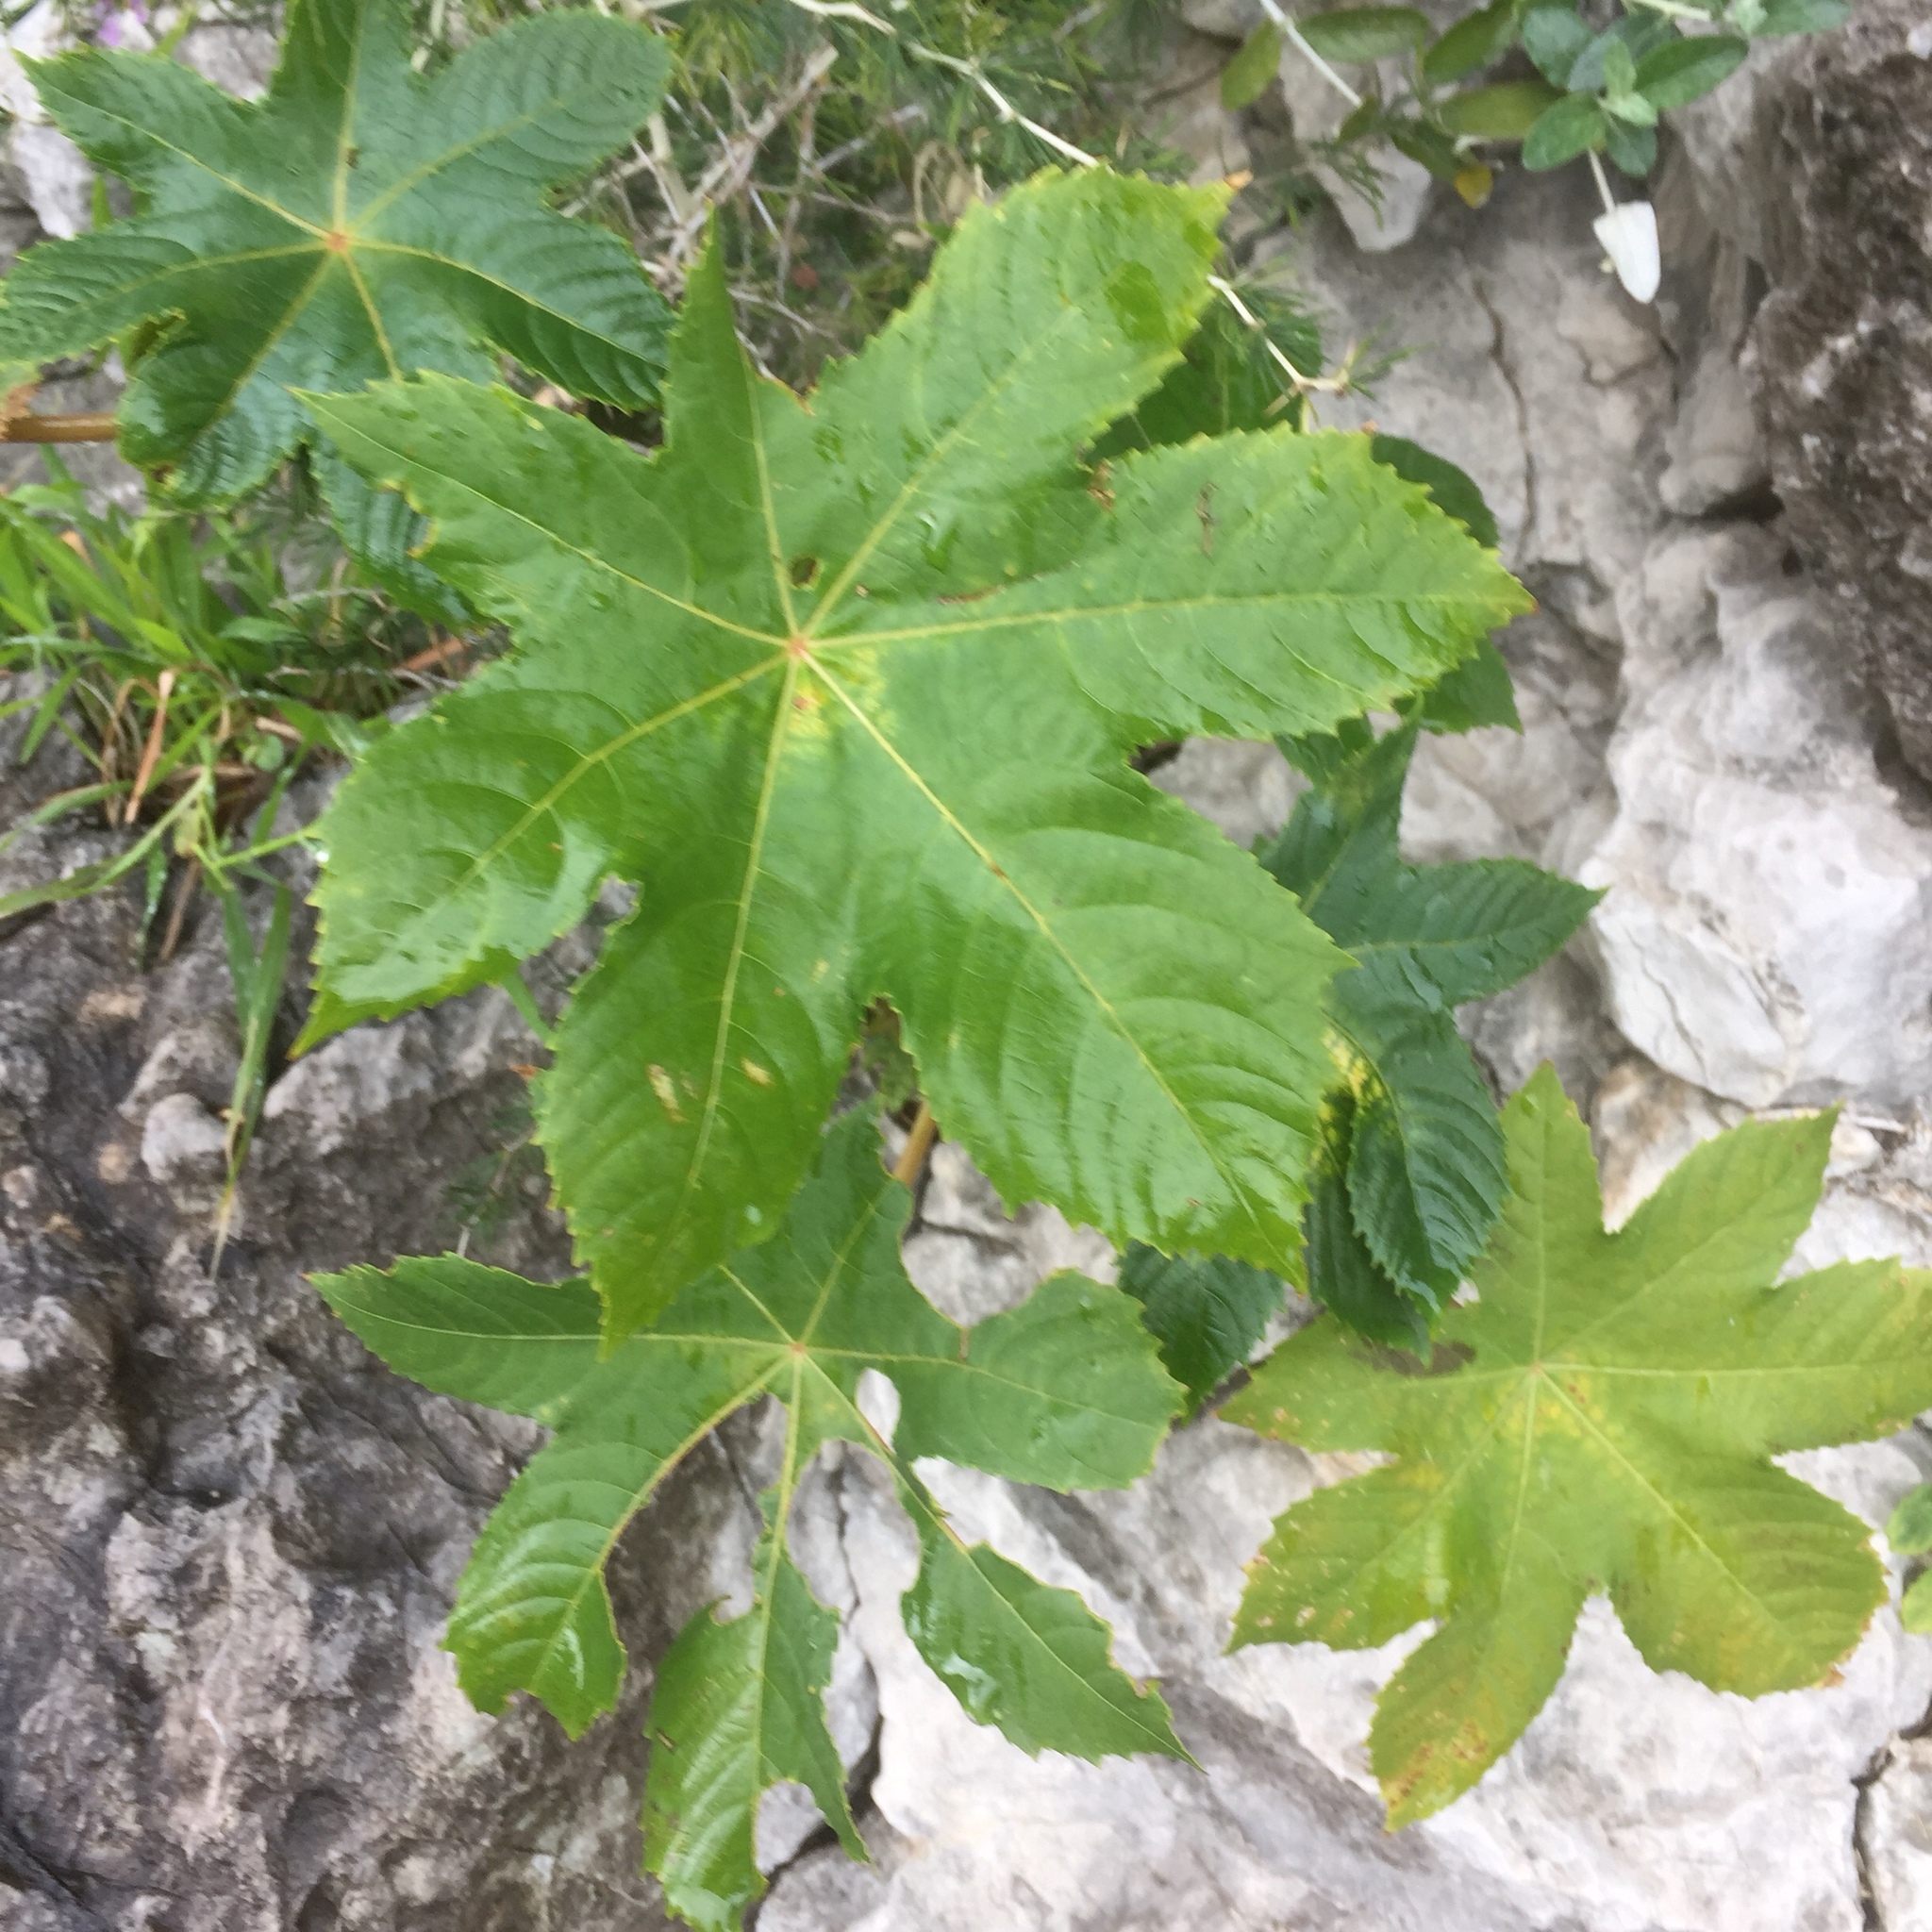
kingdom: Plantae
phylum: Tracheophyta
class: Magnoliopsida
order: Malpighiales
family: Euphorbiaceae
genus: Ricinus
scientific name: Ricinus communis
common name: Castor-oil-plant
